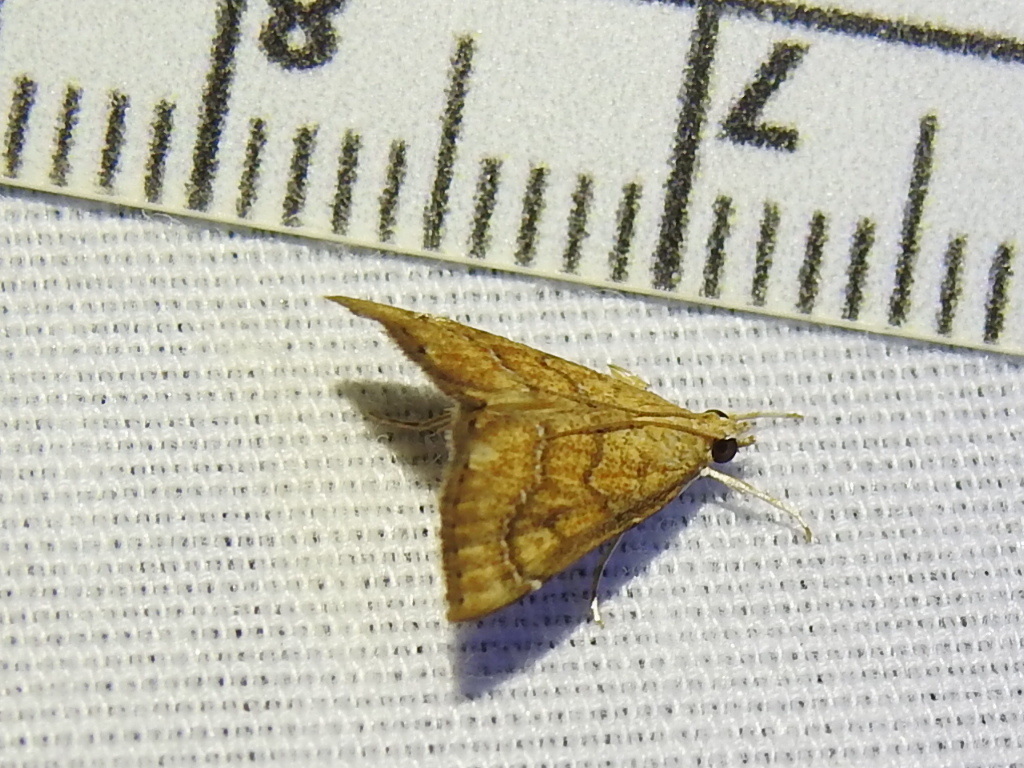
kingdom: Animalia
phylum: Arthropoda
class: Insecta
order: Lepidoptera
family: Crambidae
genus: Aethiophysa
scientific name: Aethiophysa dualis
